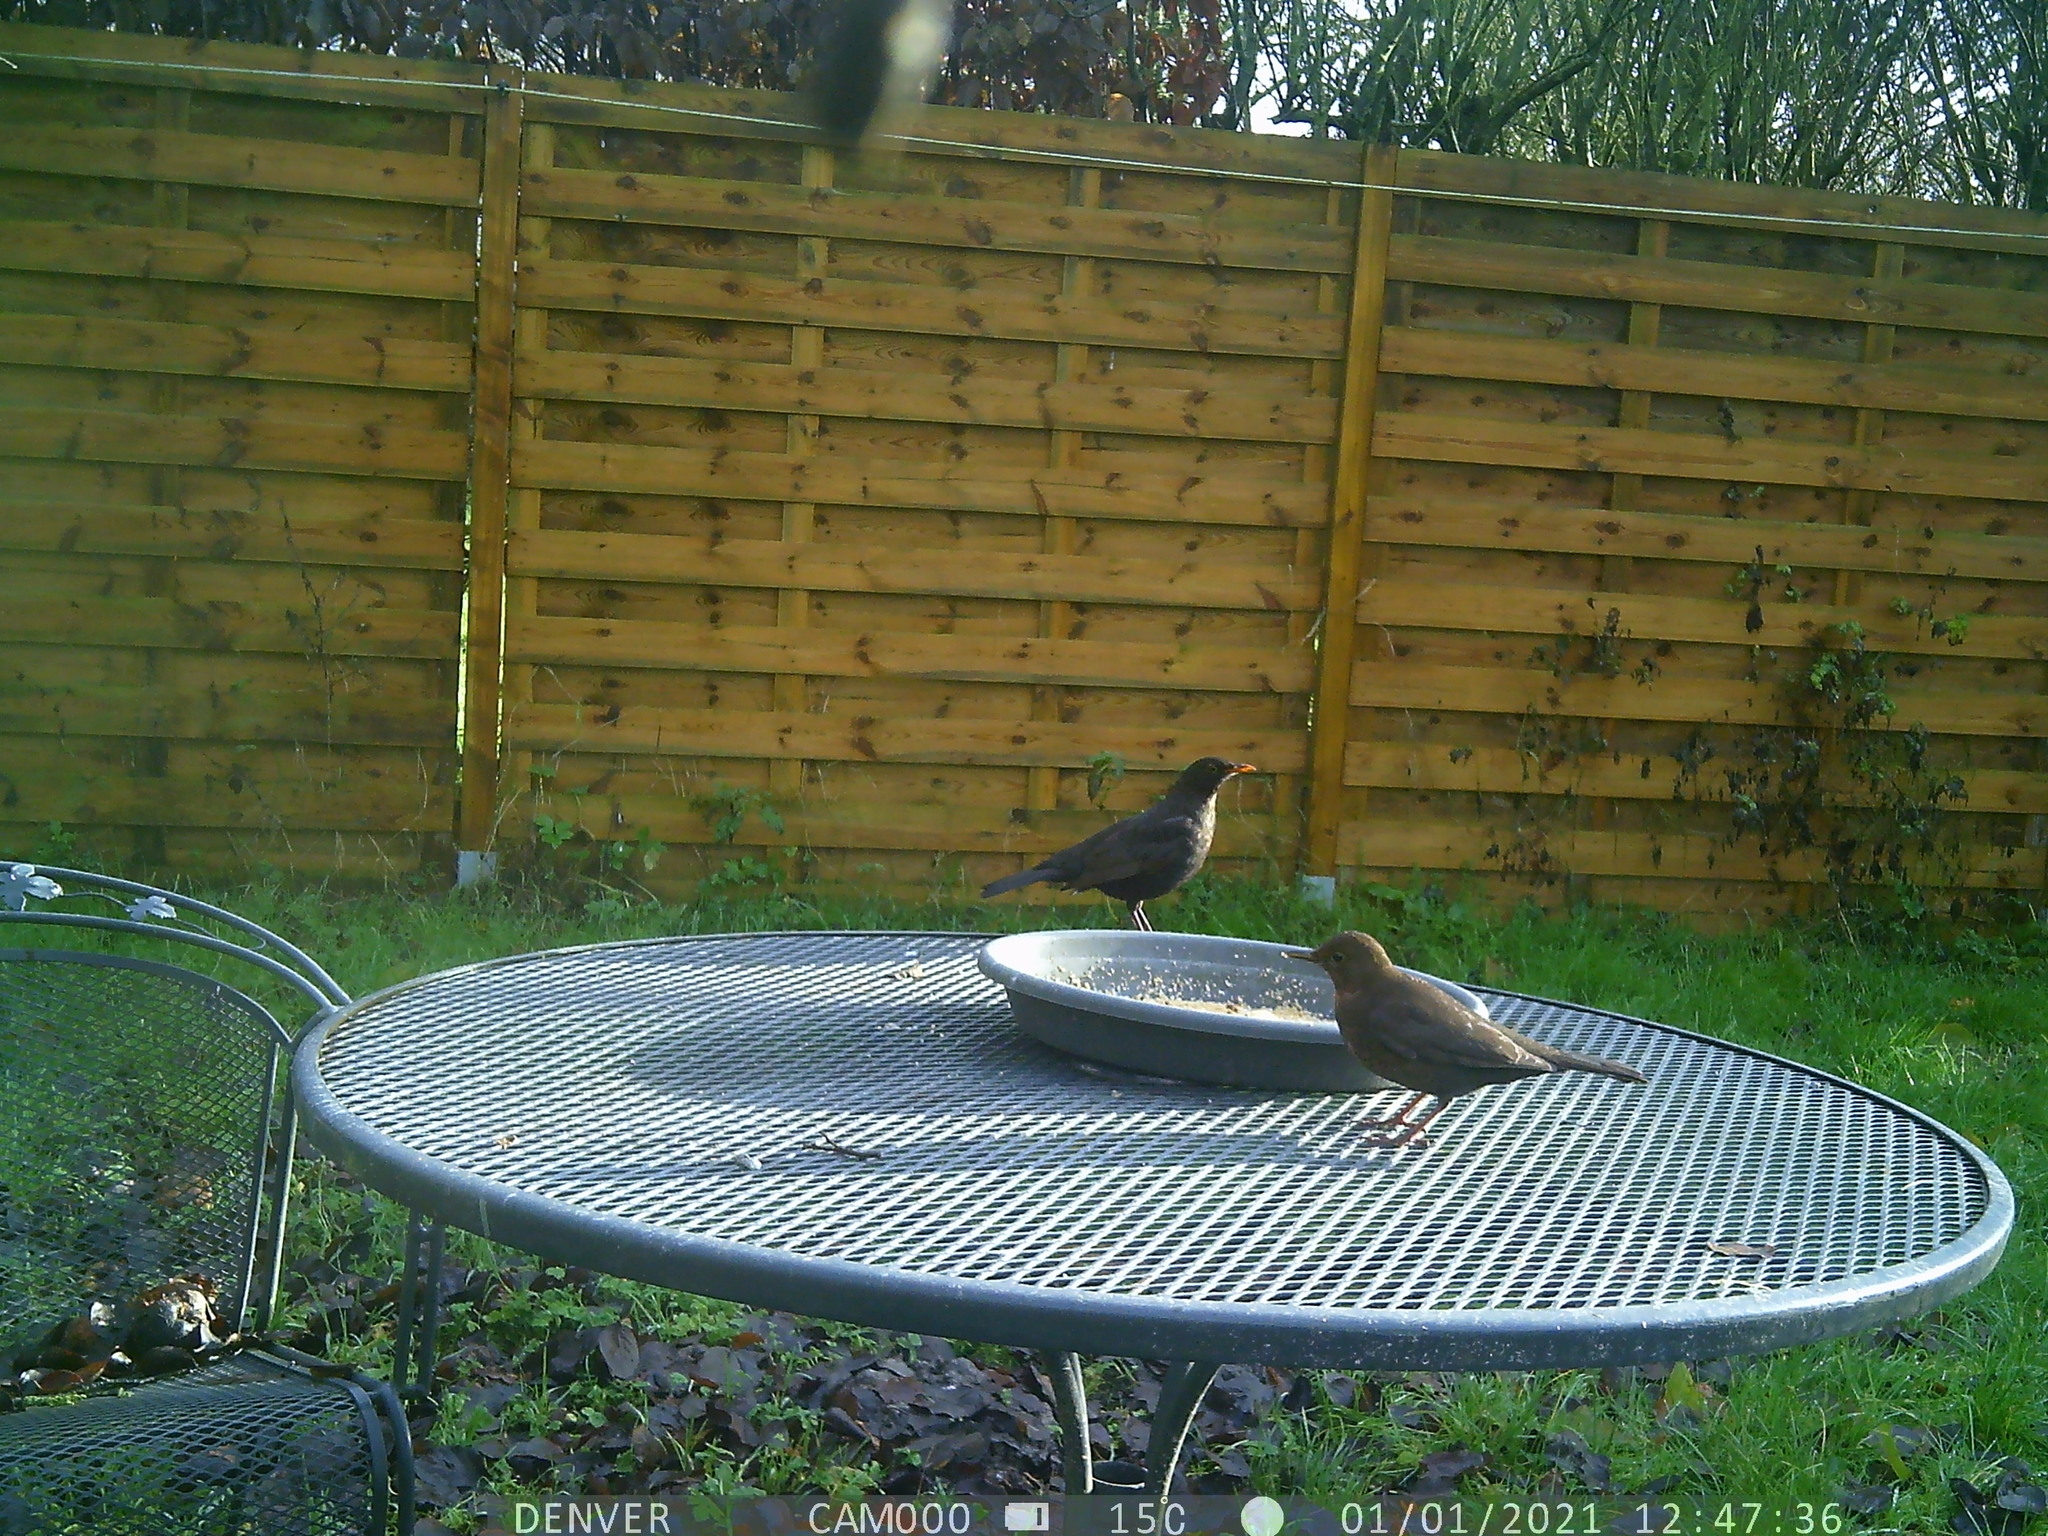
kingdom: Animalia
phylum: Chordata
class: Aves
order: Passeriformes
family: Turdidae
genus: Turdus
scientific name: Turdus merula
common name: Common blackbird
